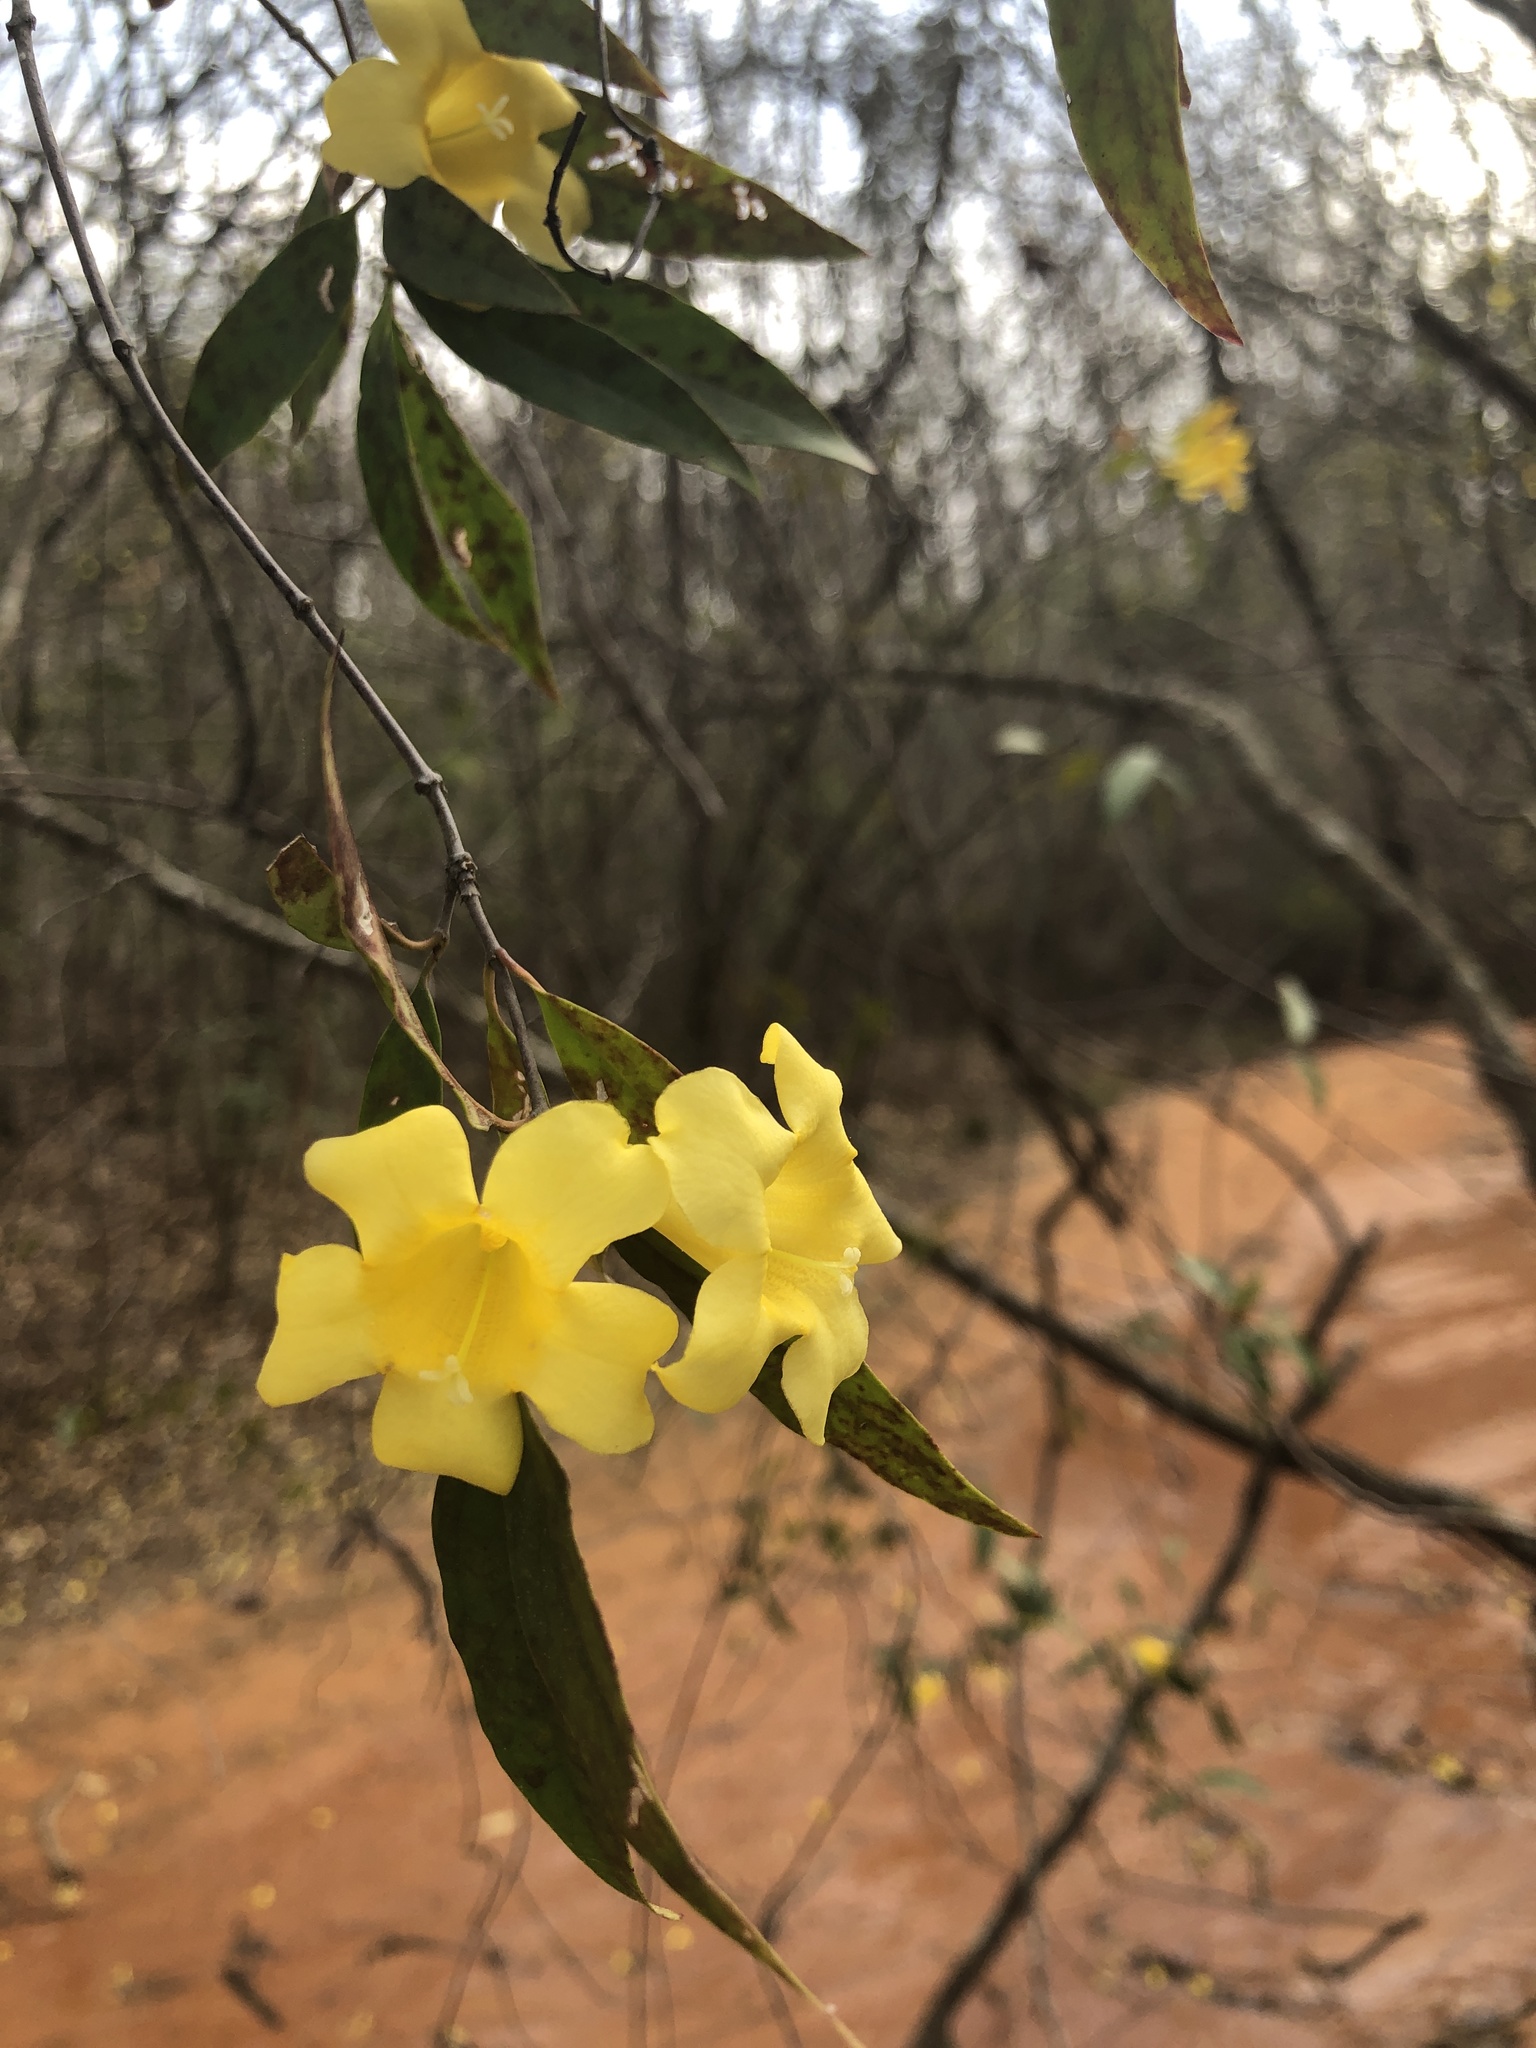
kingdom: Plantae
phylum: Tracheophyta
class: Magnoliopsida
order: Gentianales
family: Gelsemiaceae
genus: Gelsemium
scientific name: Gelsemium sempervirens
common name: Carolina-jasmine
